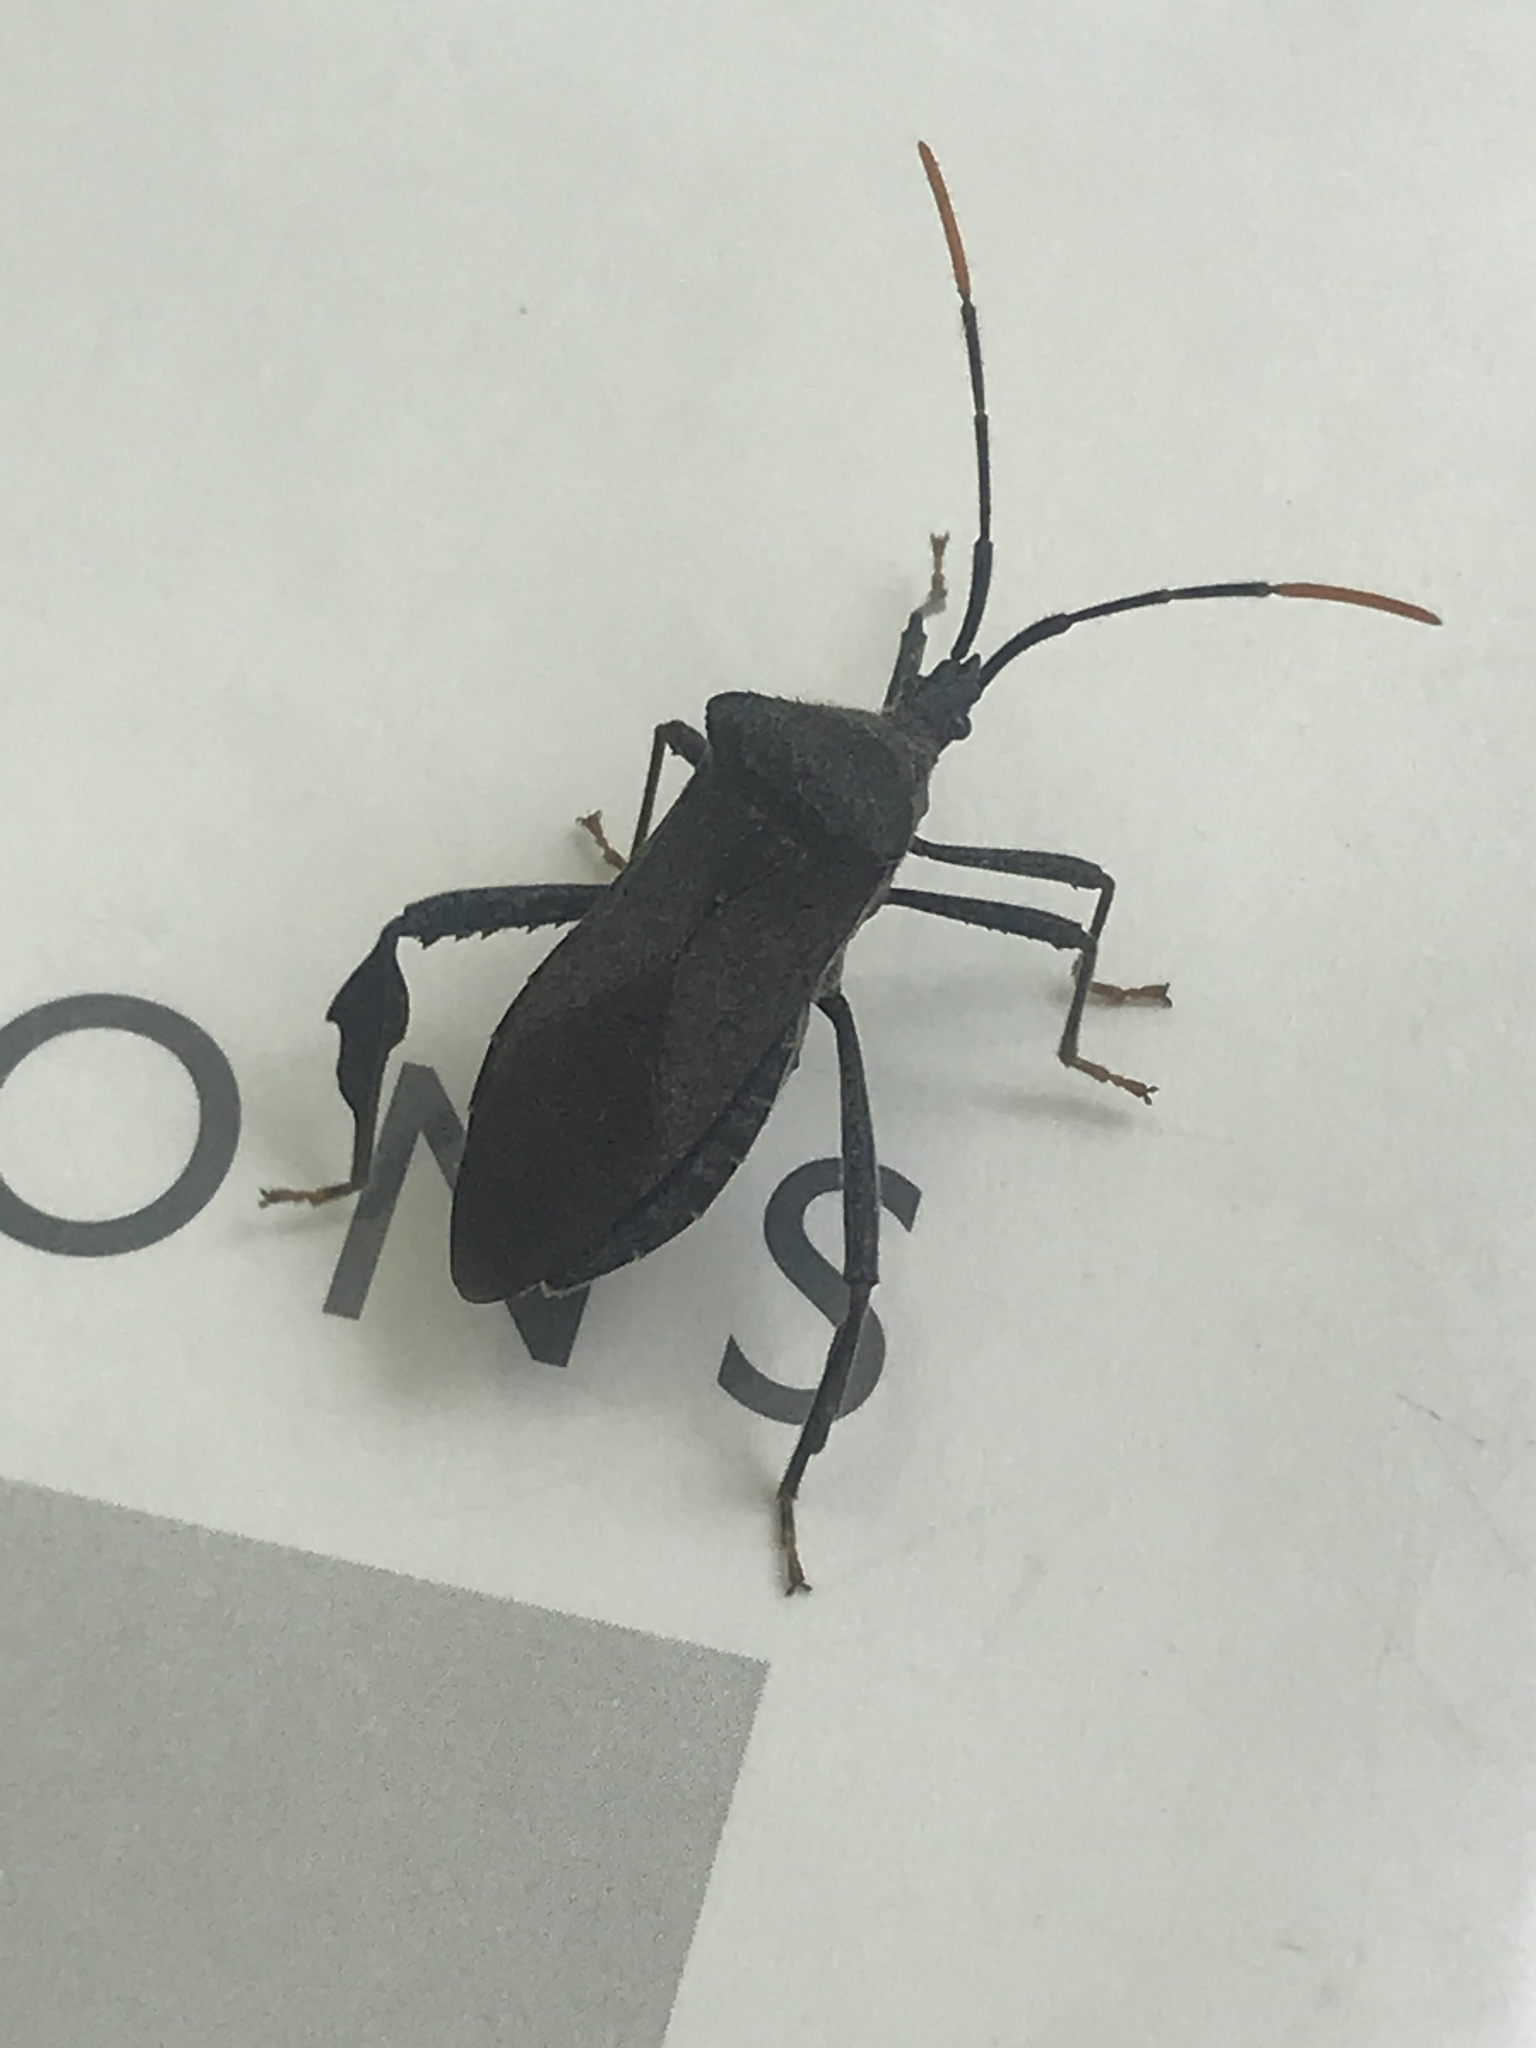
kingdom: Animalia
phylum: Arthropoda
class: Insecta
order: Hemiptera
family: Coreidae
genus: Acanthocephala
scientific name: Acanthocephala terminalis
